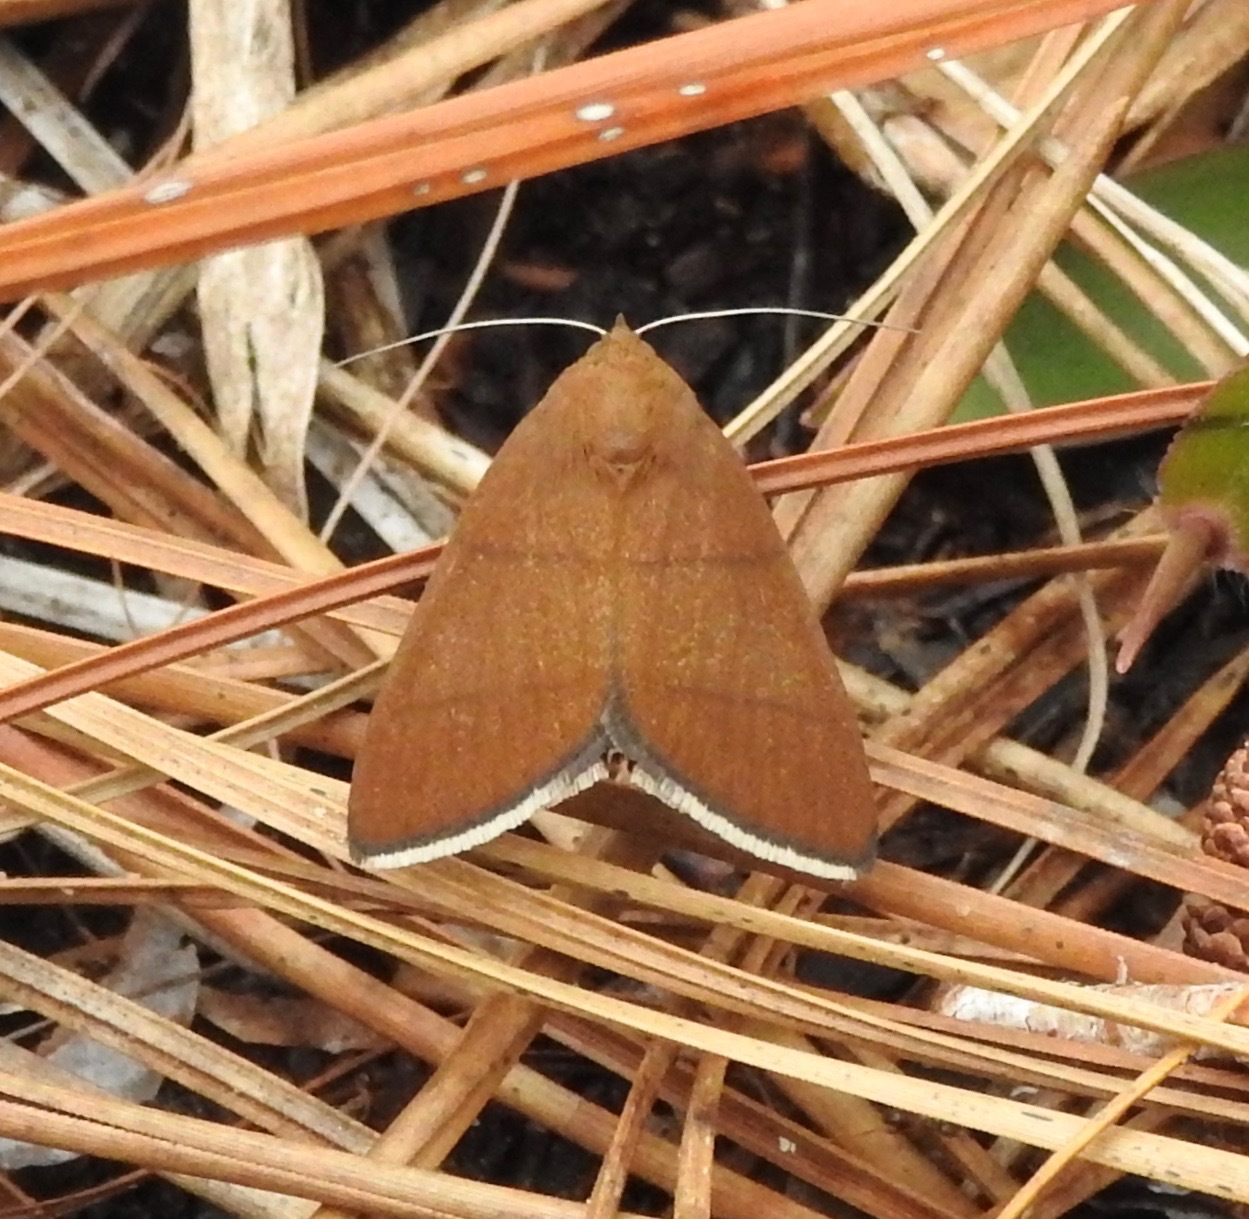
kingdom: Animalia
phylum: Arthropoda
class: Insecta
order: Lepidoptera
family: Erebidae
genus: Argyrostrotis
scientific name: Argyrostrotis quadrifilaris
